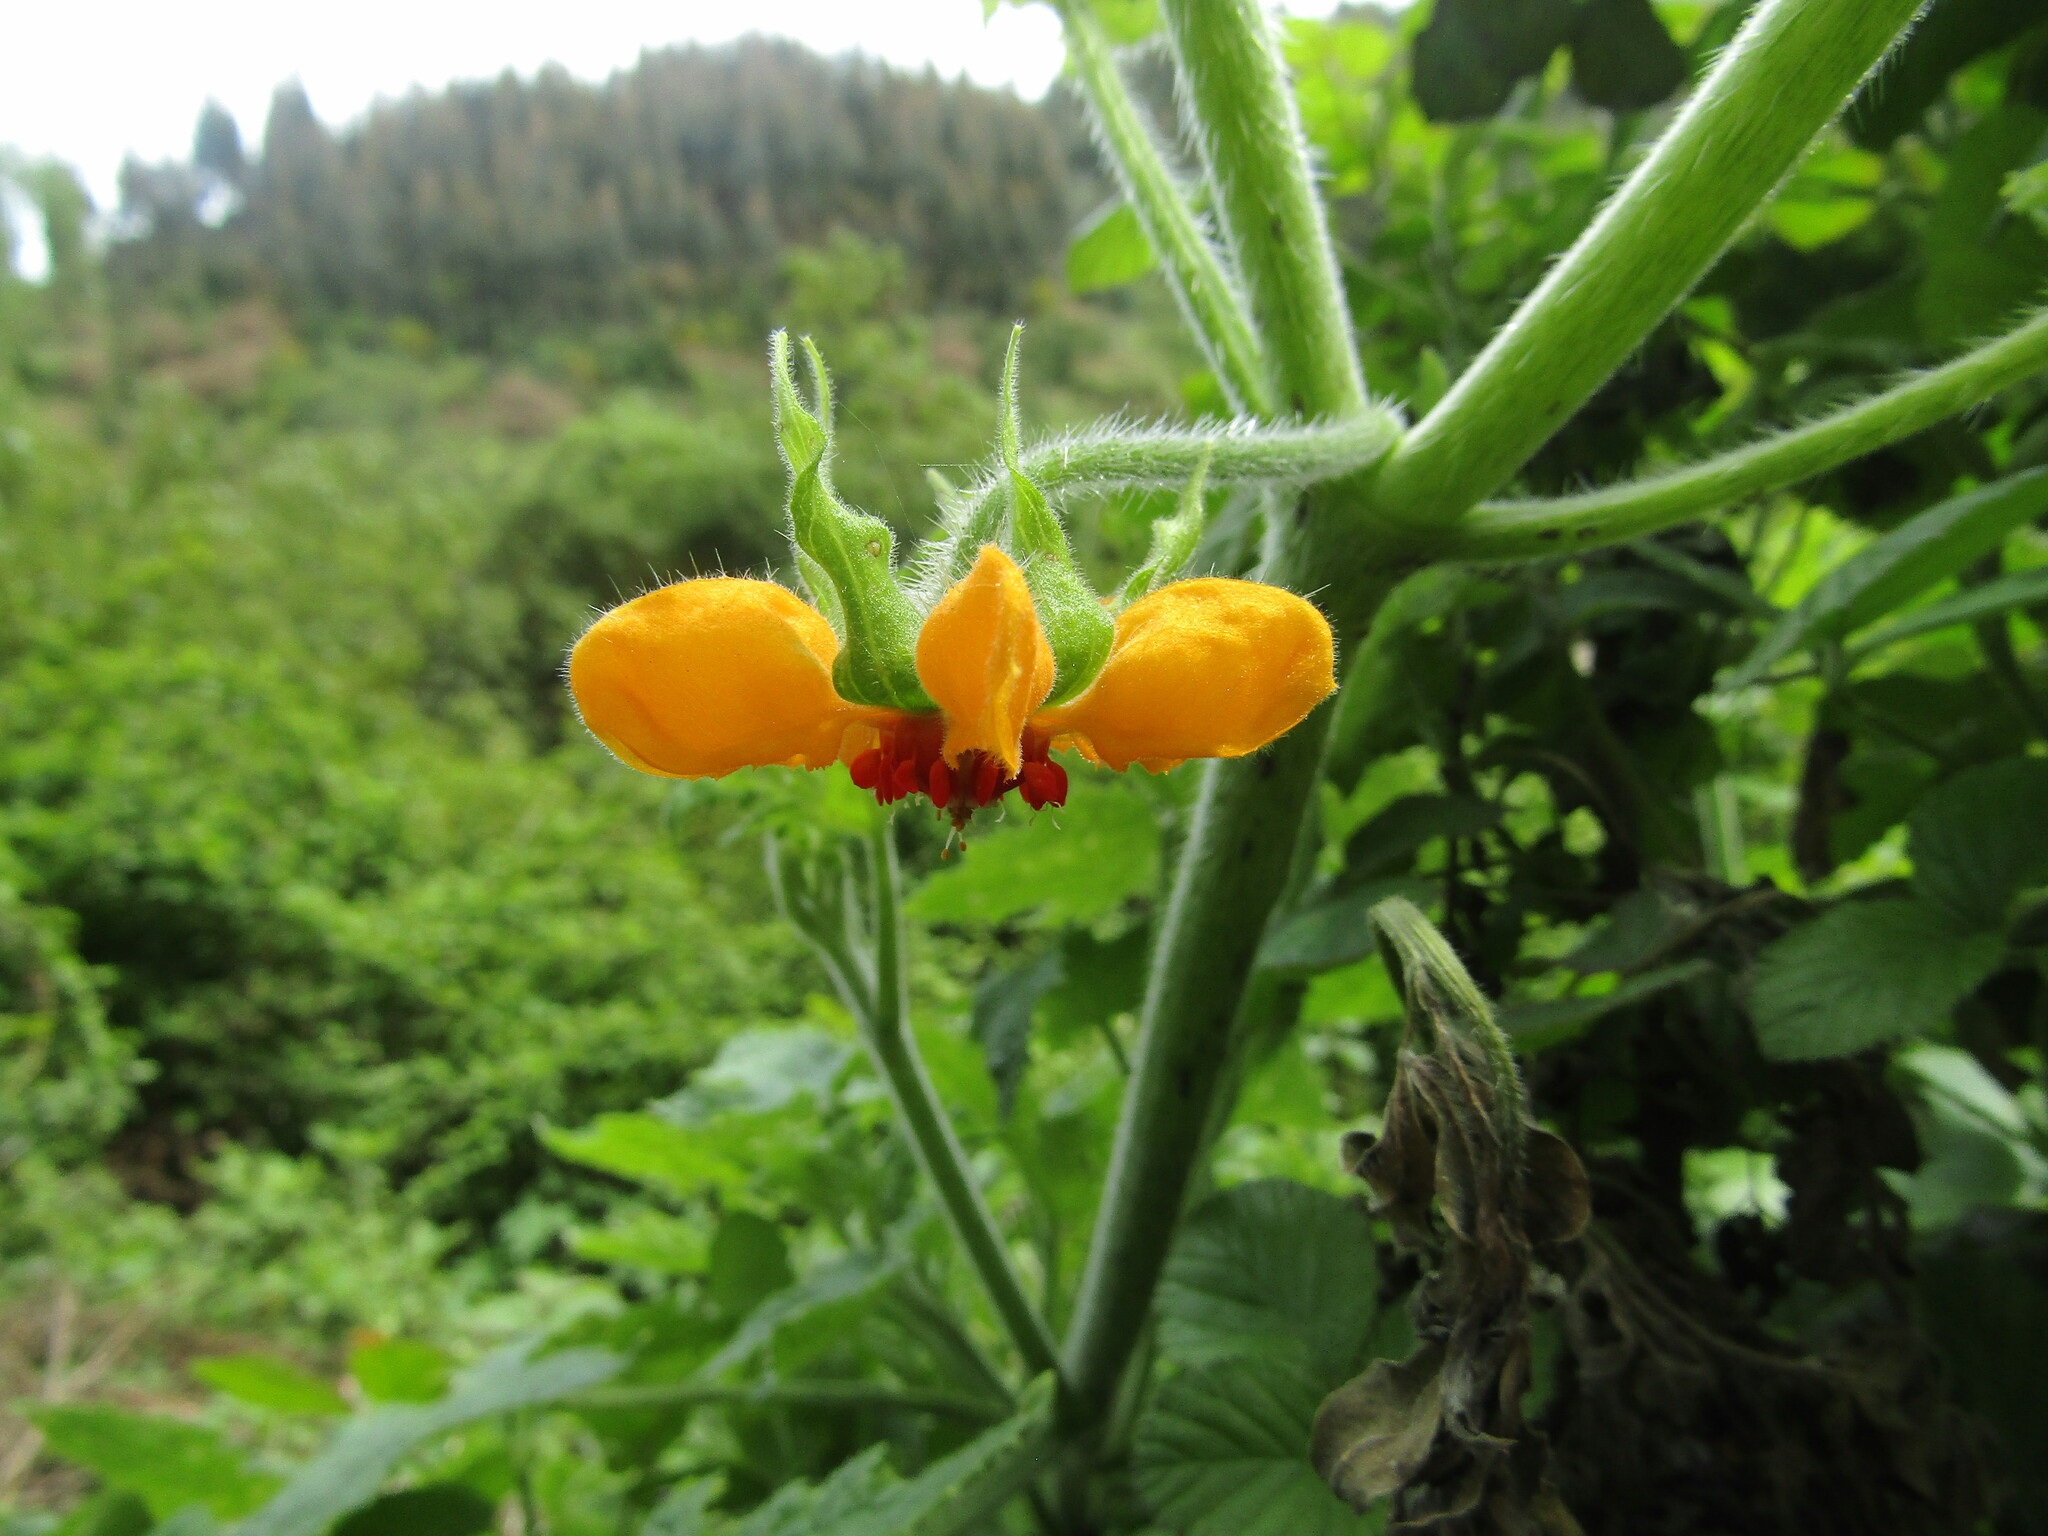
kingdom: Plantae
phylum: Tracheophyta
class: Magnoliopsida
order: Cornales
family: Loasaceae
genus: Loasa
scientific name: Loasa acerifolia
